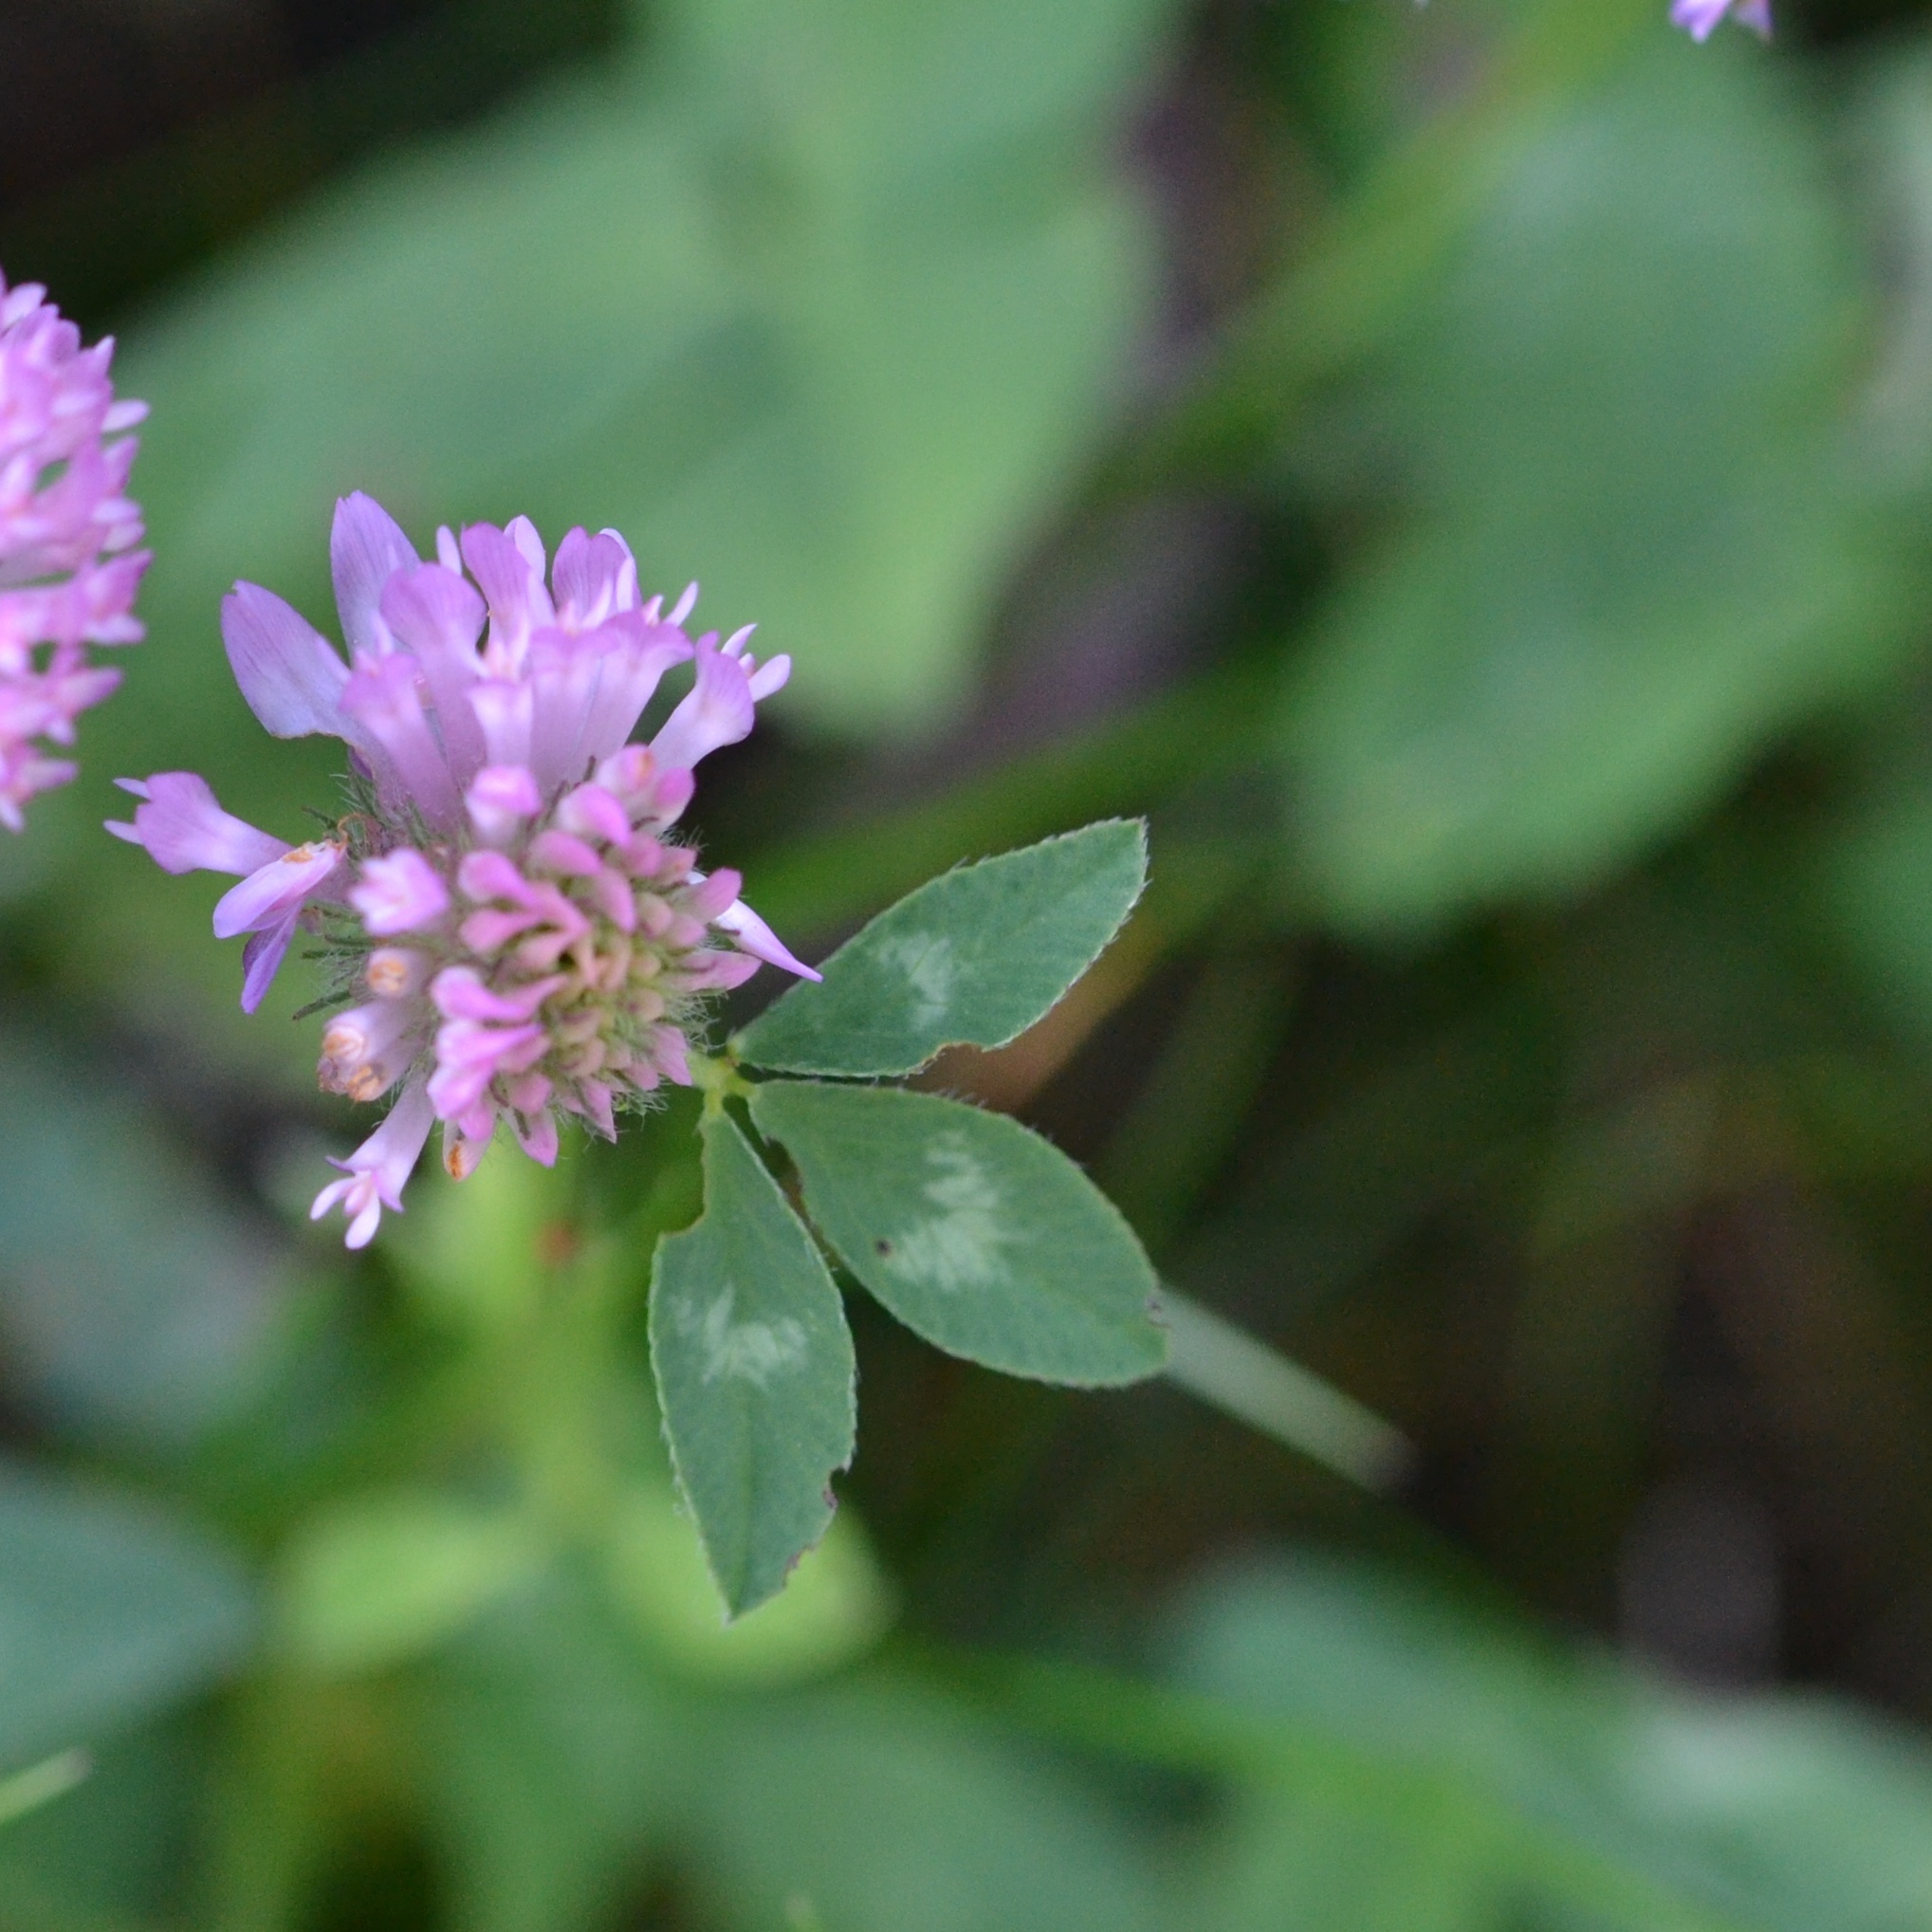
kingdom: Plantae
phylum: Tracheophyta
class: Magnoliopsida
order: Fabales
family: Fabaceae
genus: Trifolium
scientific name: Trifolium pratense
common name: Red clover
